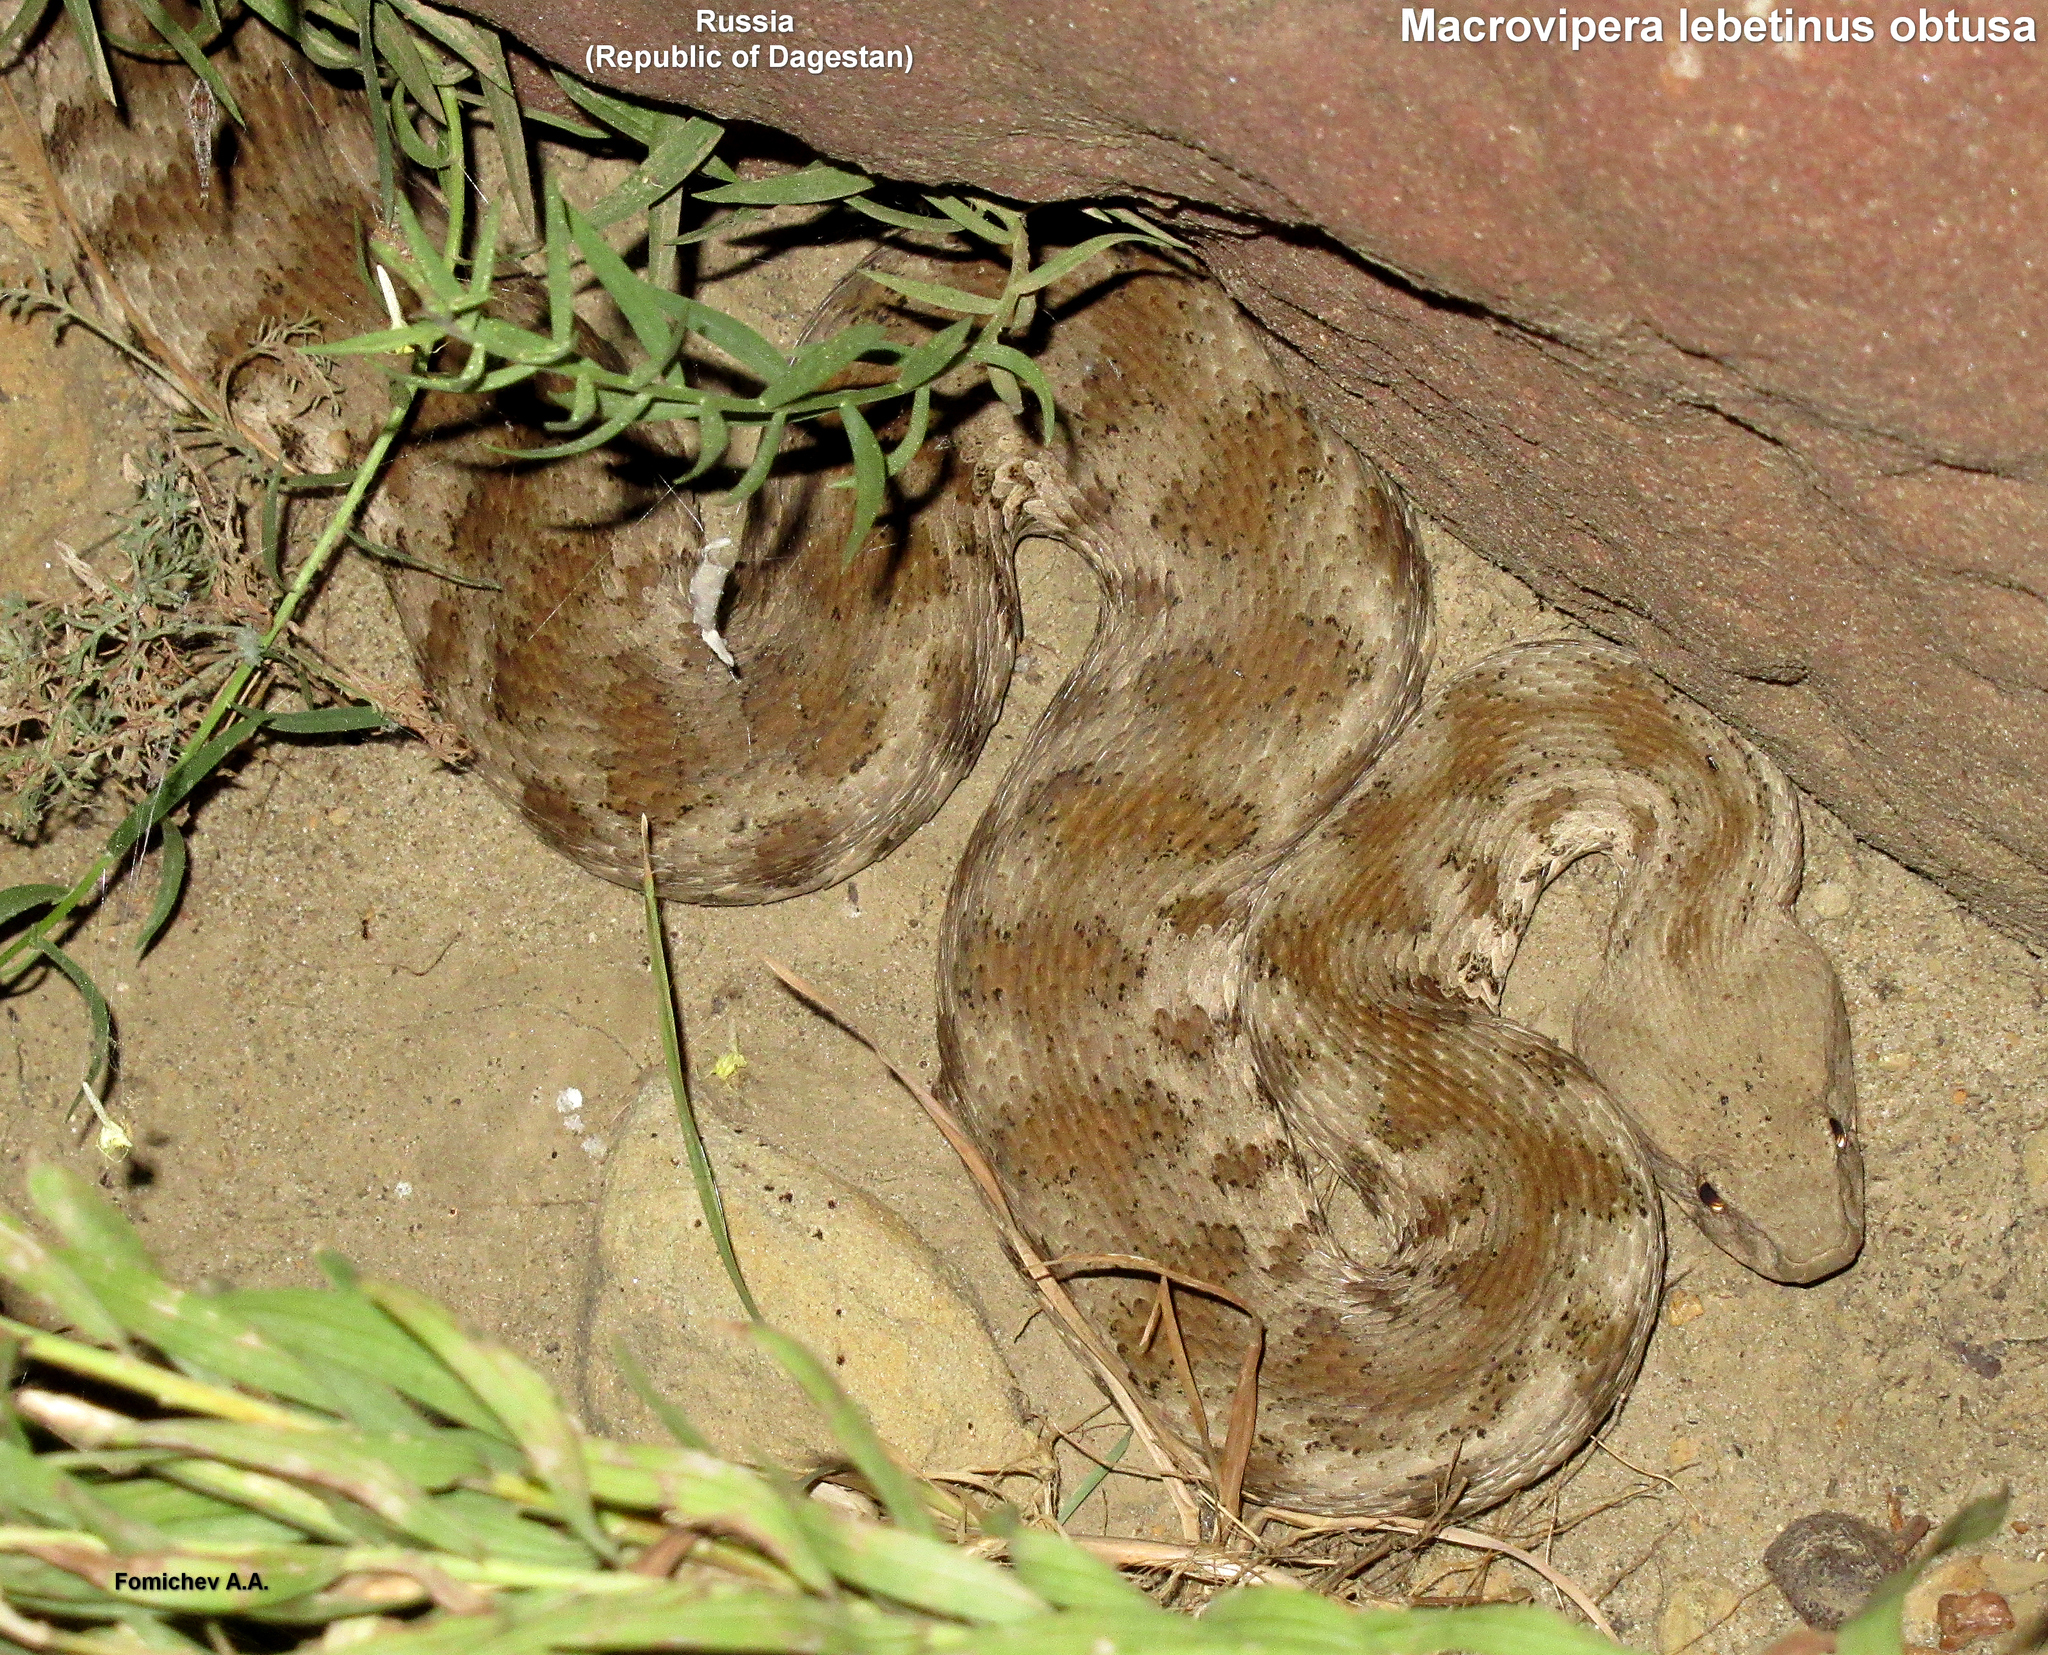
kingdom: Animalia
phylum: Chordata
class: Squamata
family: Viperidae
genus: Macrovipera
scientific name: Macrovipera lebetinus
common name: Levantine viper
